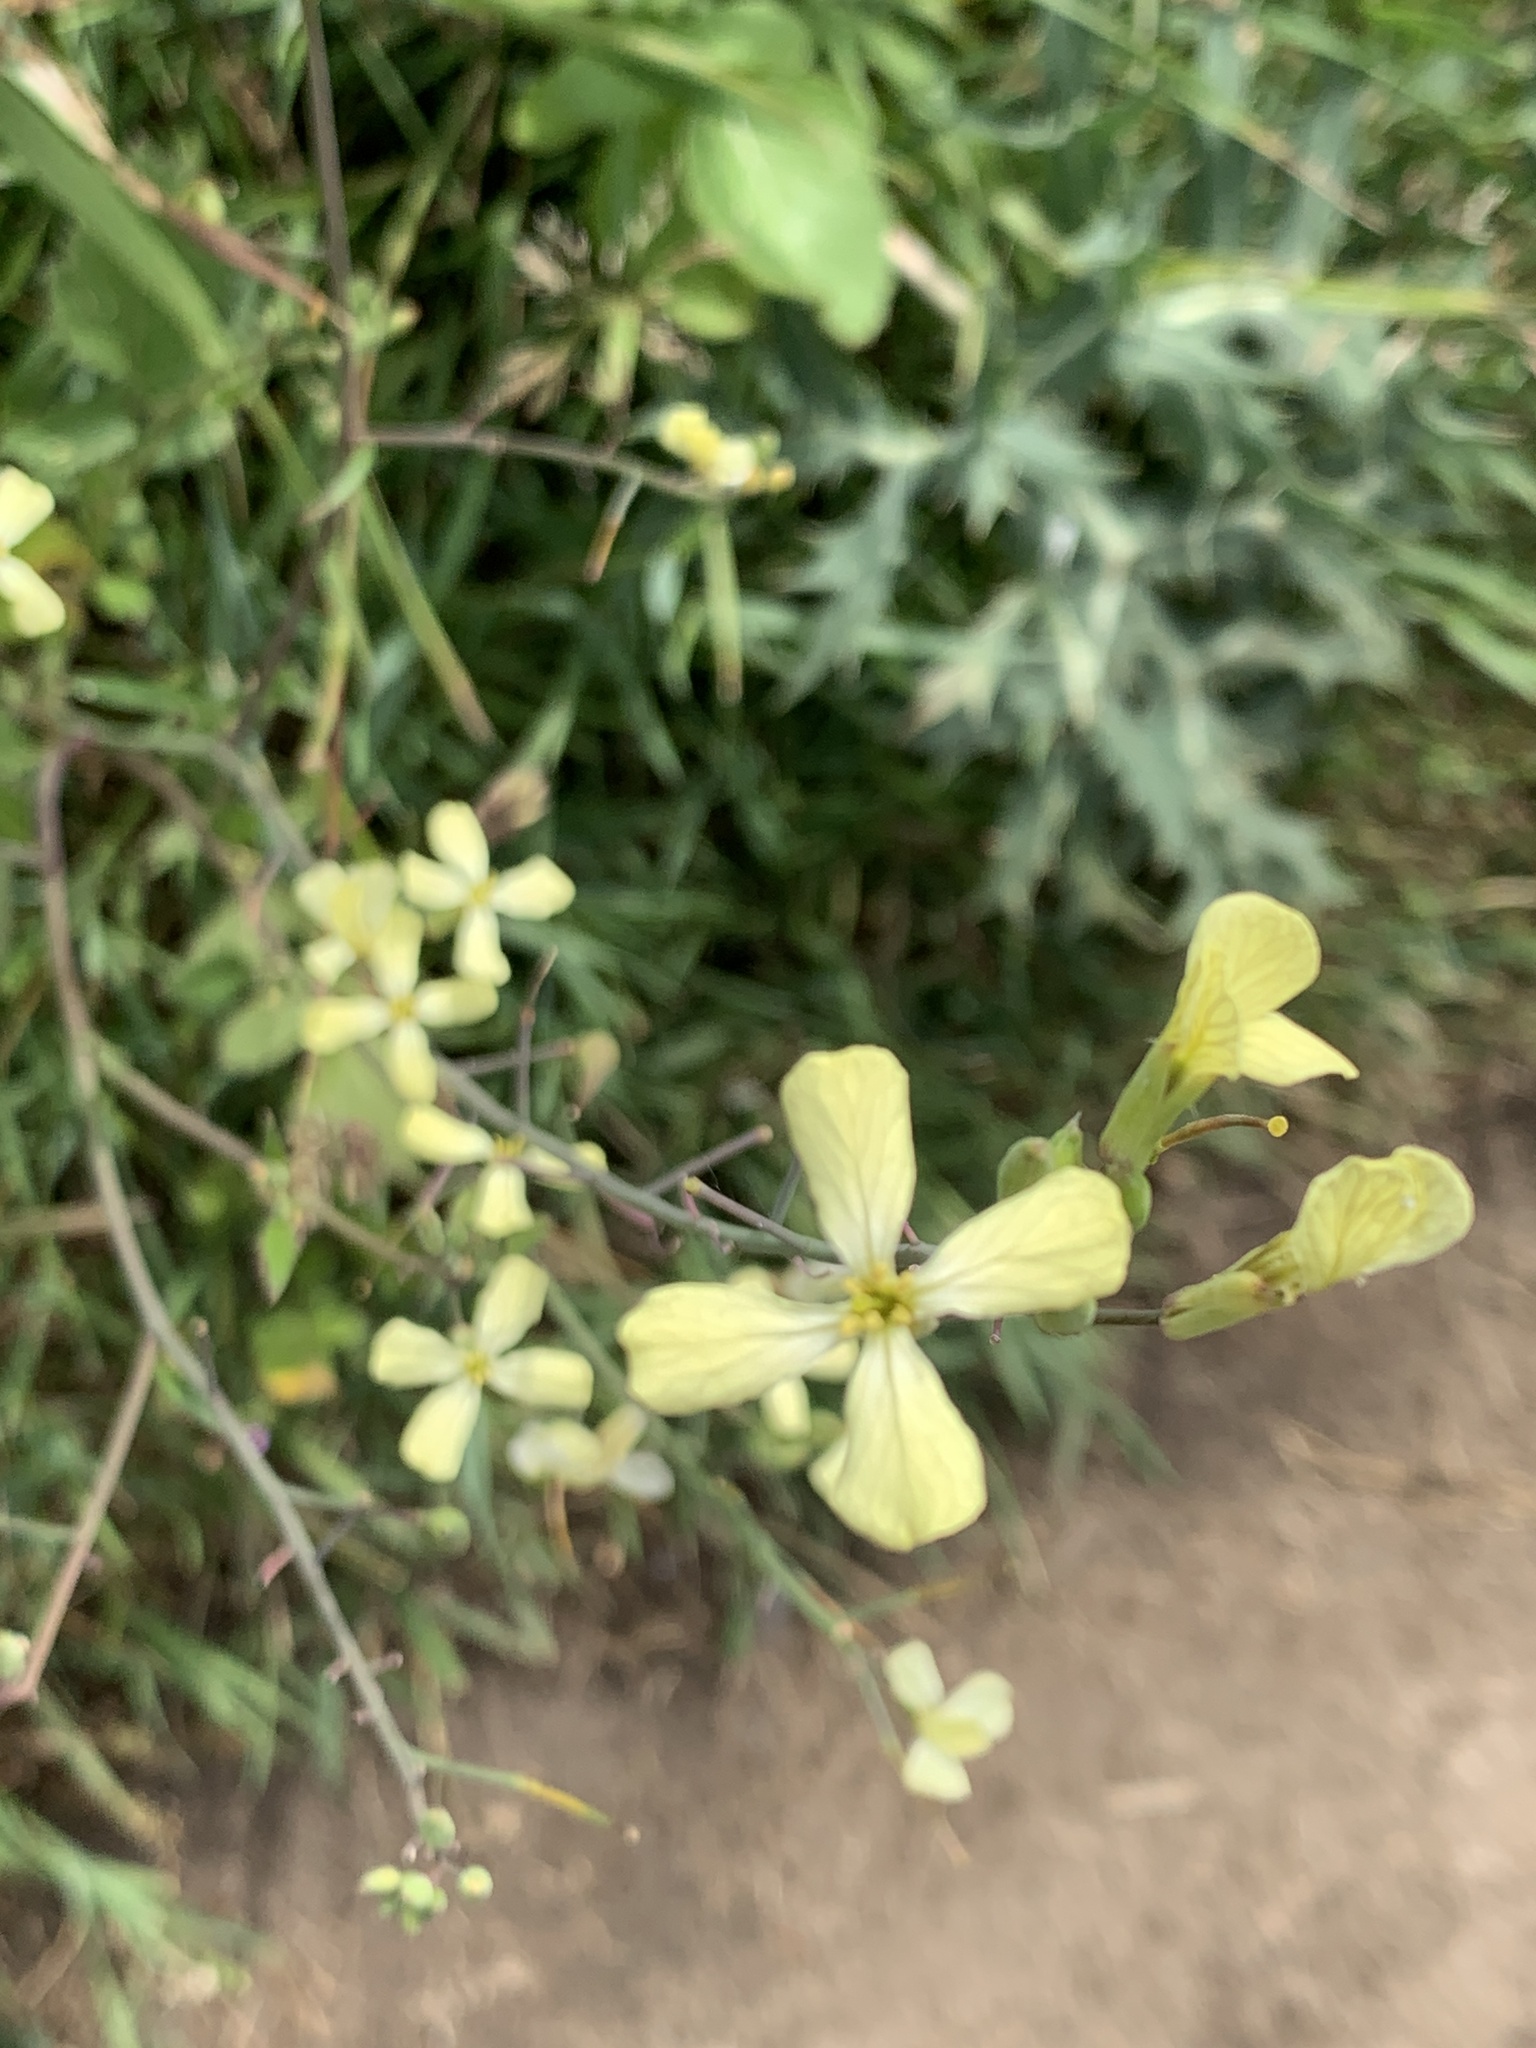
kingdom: Plantae
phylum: Tracheophyta
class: Magnoliopsida
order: Brassicales
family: Brassicaceae
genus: Raphanus
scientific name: Raphanus raphanistrum
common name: Wild radish
